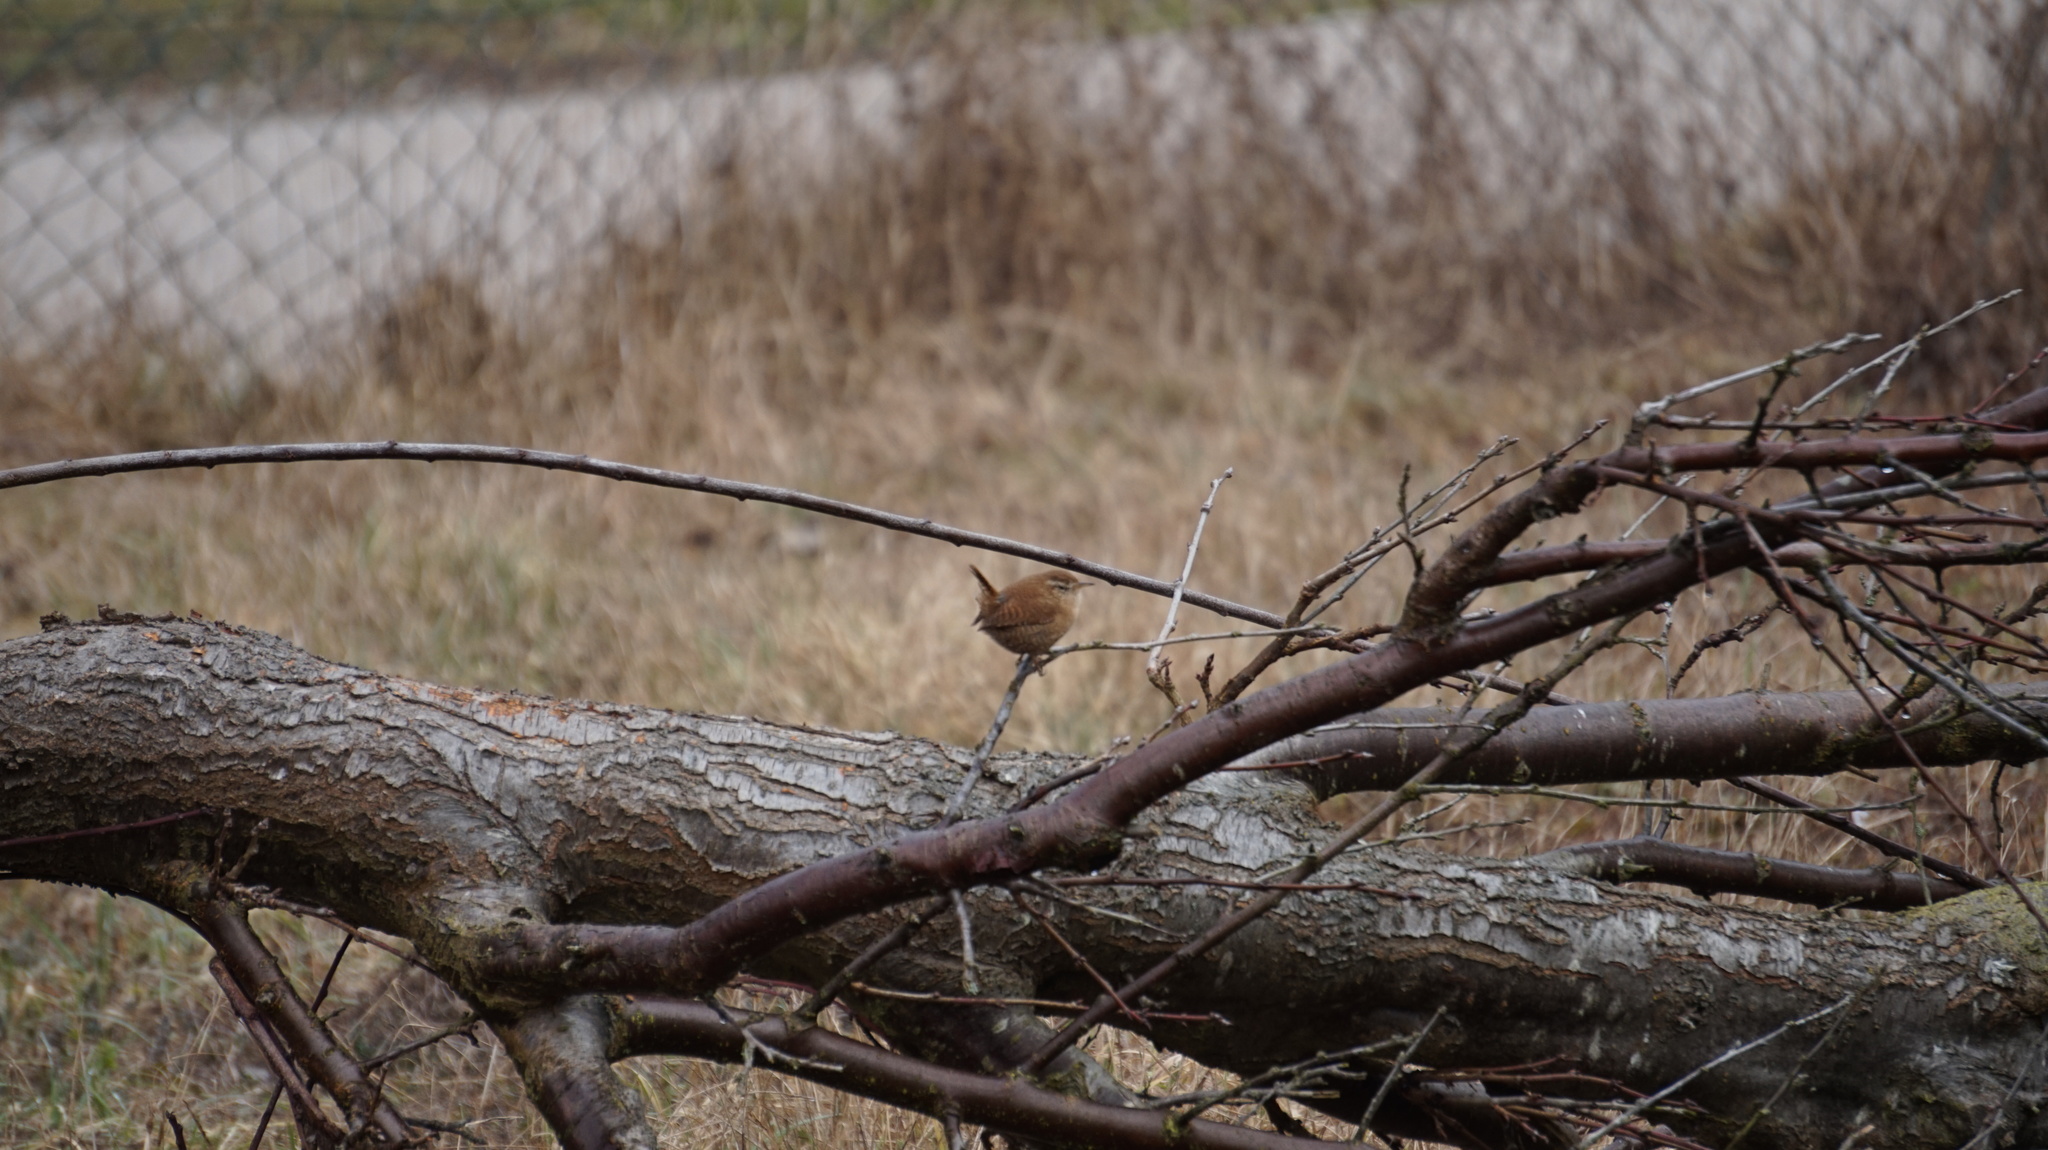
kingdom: Animalia
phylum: Chordata
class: Aves
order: Passeriformes
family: Troglodytidae
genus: Troglodytes
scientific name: Troglodytes troglodytes
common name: Eurasian wren
